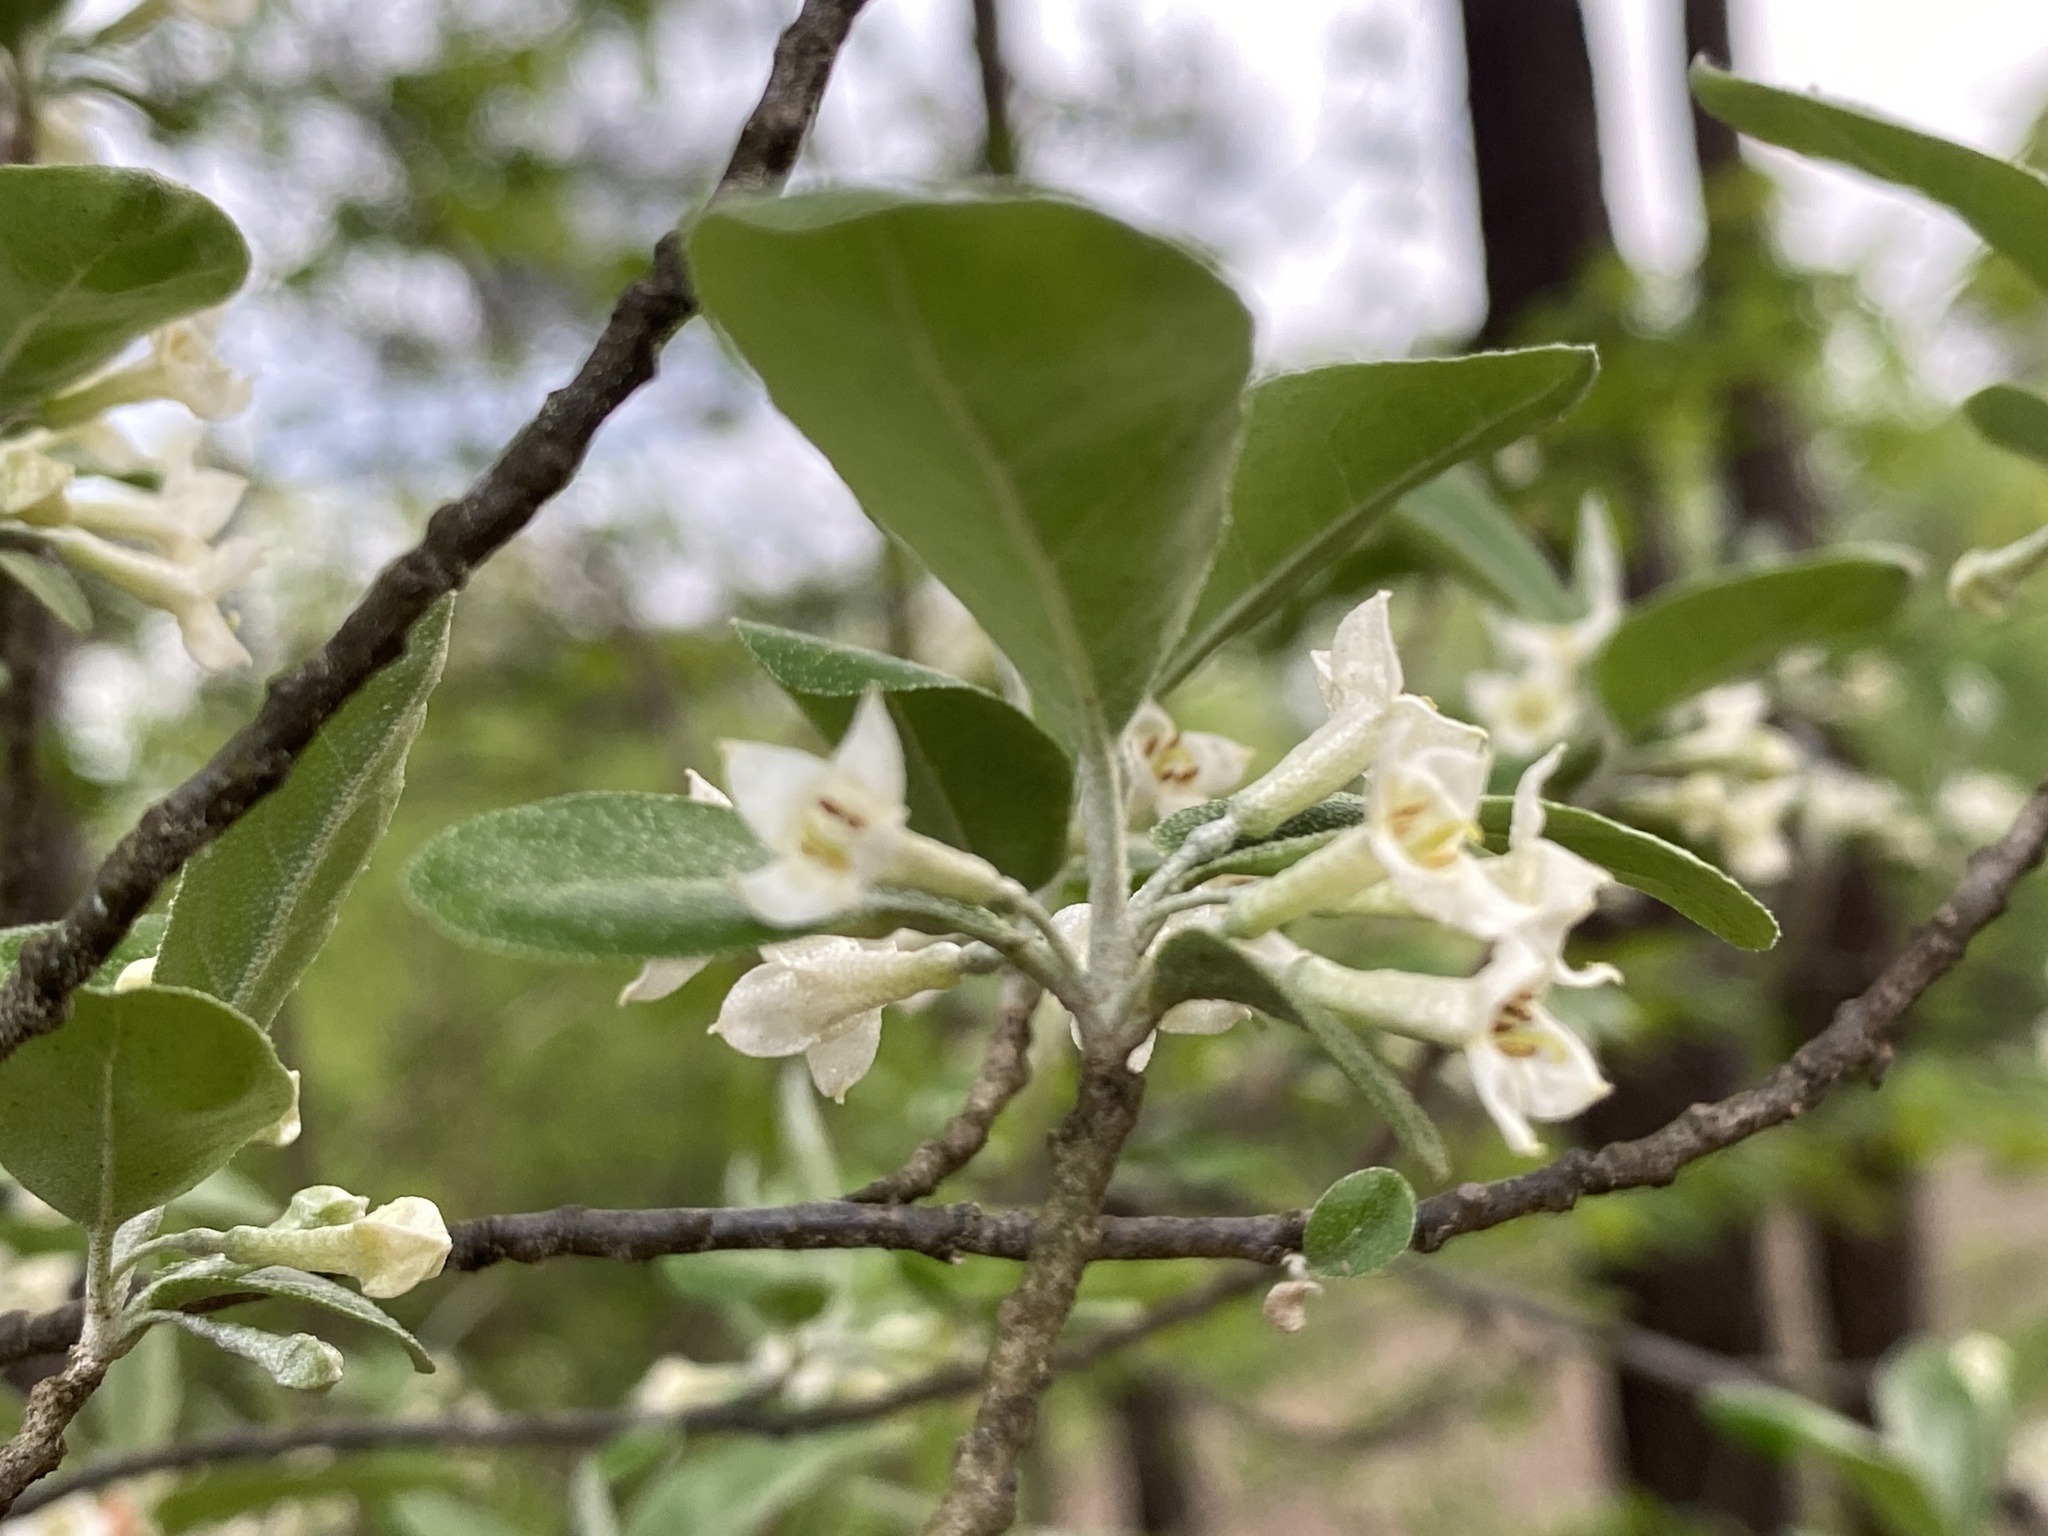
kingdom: Plantae
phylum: Tracheophyta
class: Magnoliopsida
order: Rosales
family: Elaeagnaceae
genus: Elaeagnus
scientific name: Elaeagnus umbellata
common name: Autumn olive
